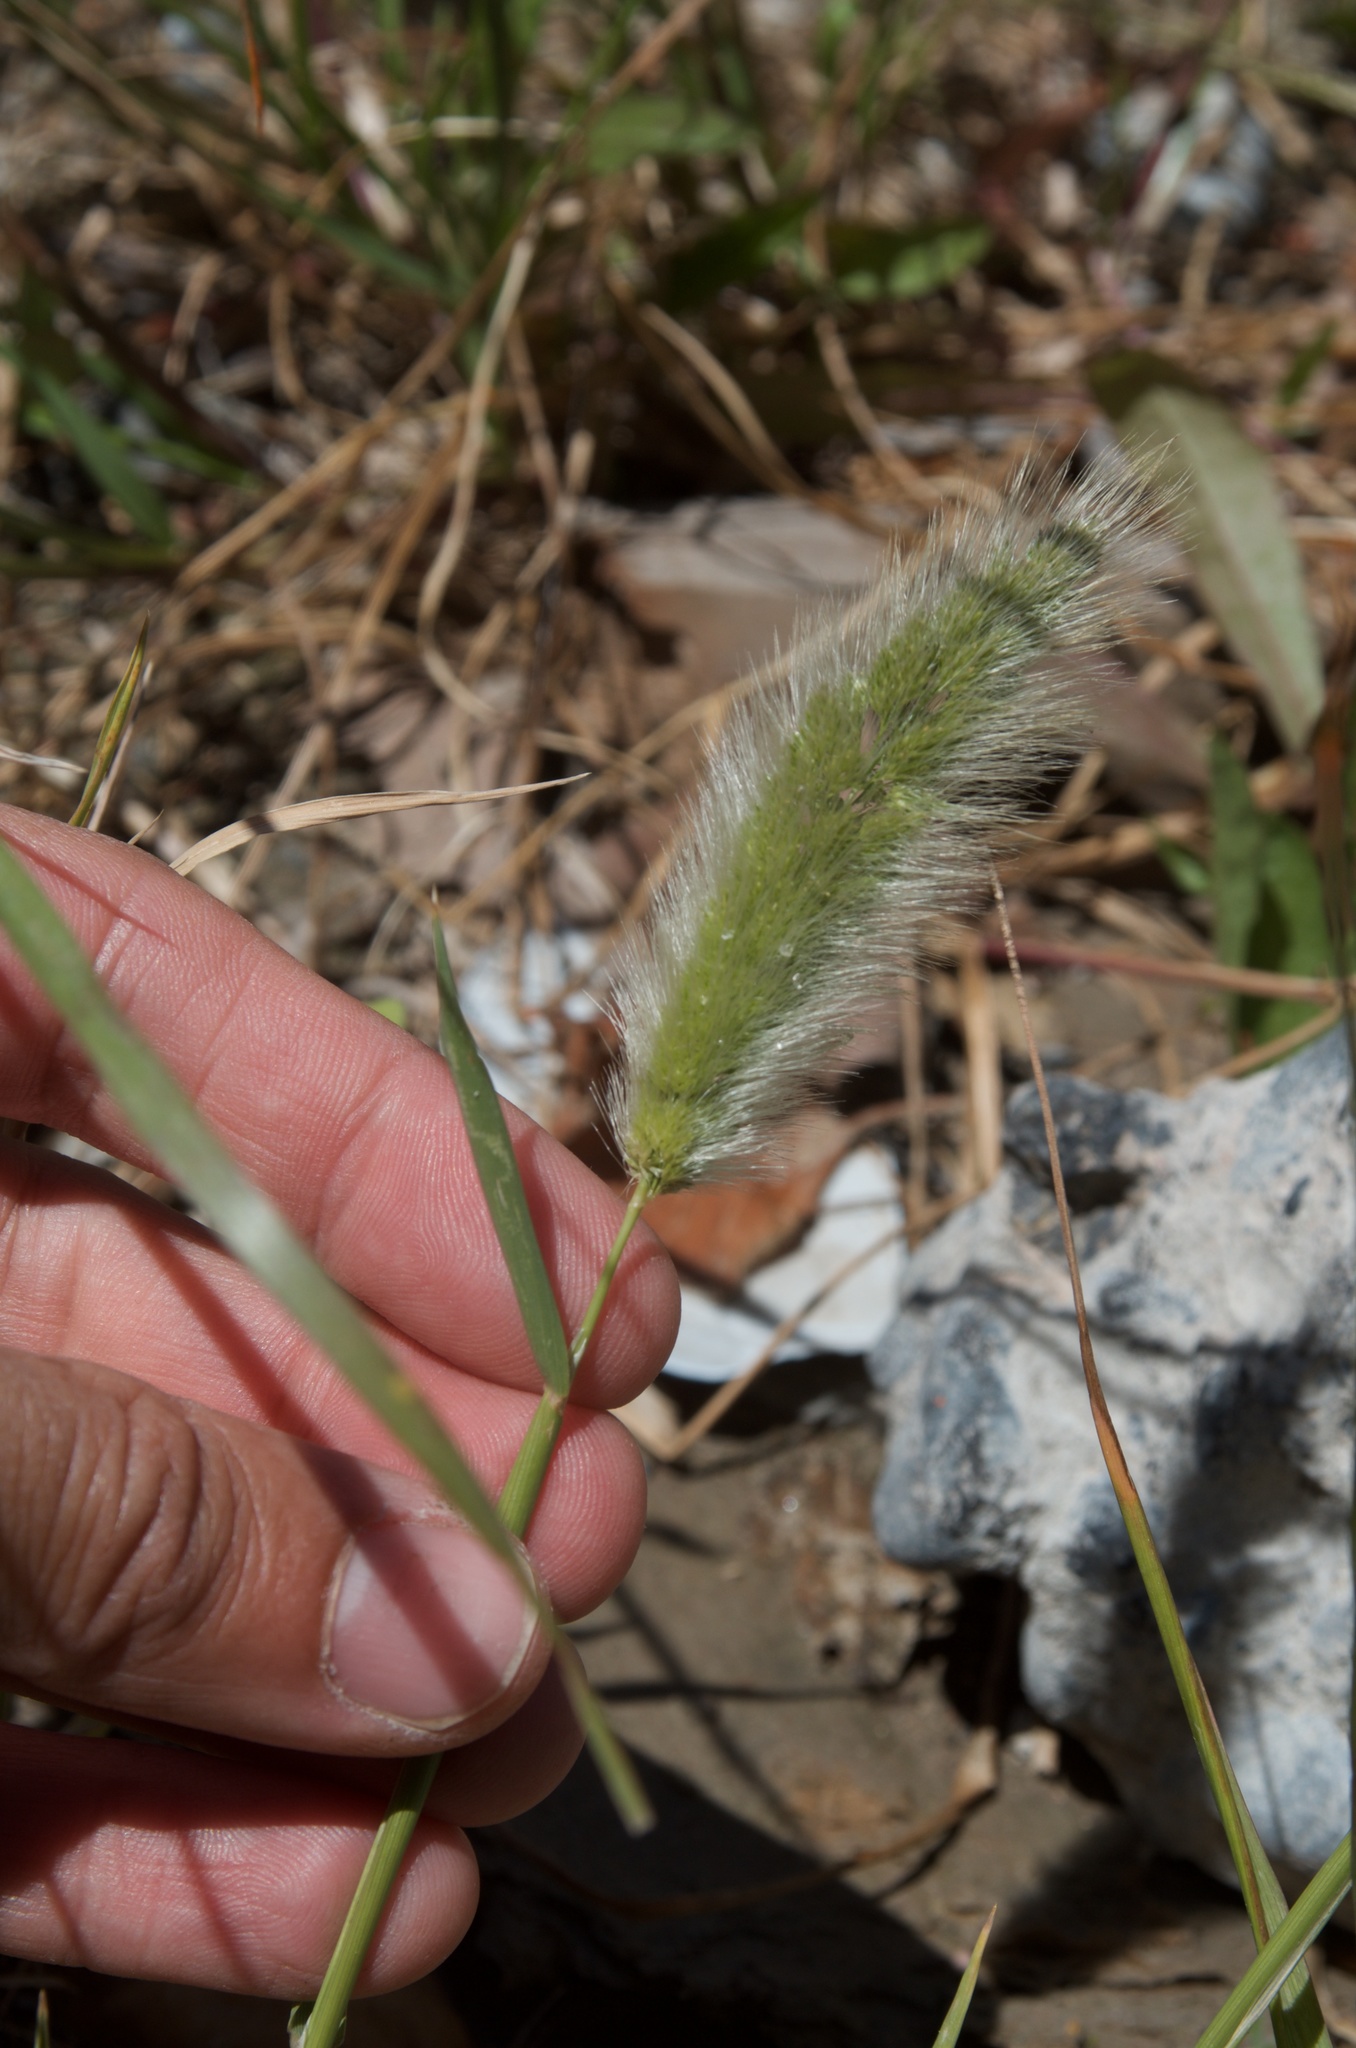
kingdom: Plantae
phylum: Tracheophyta
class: Liliopsida
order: Poales
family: Poaceae
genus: Polypogon
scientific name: Polypogon monspeliensis
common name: Annual rabbitsfoot grass
